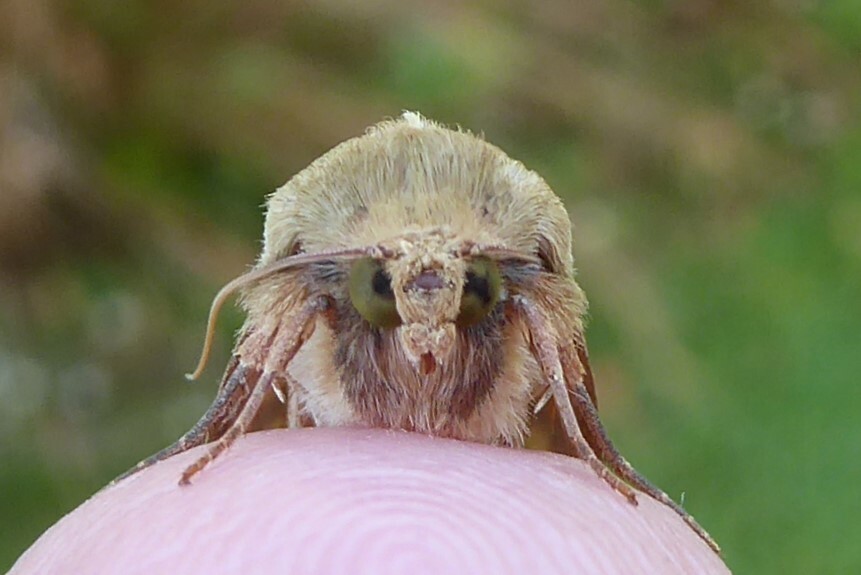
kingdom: Animalia
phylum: Arthropoda
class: Insecta
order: Lepidoptera
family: Noctuidae
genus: Helicoverpa
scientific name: Helicoverpa armigera
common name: Cotton bollworm
